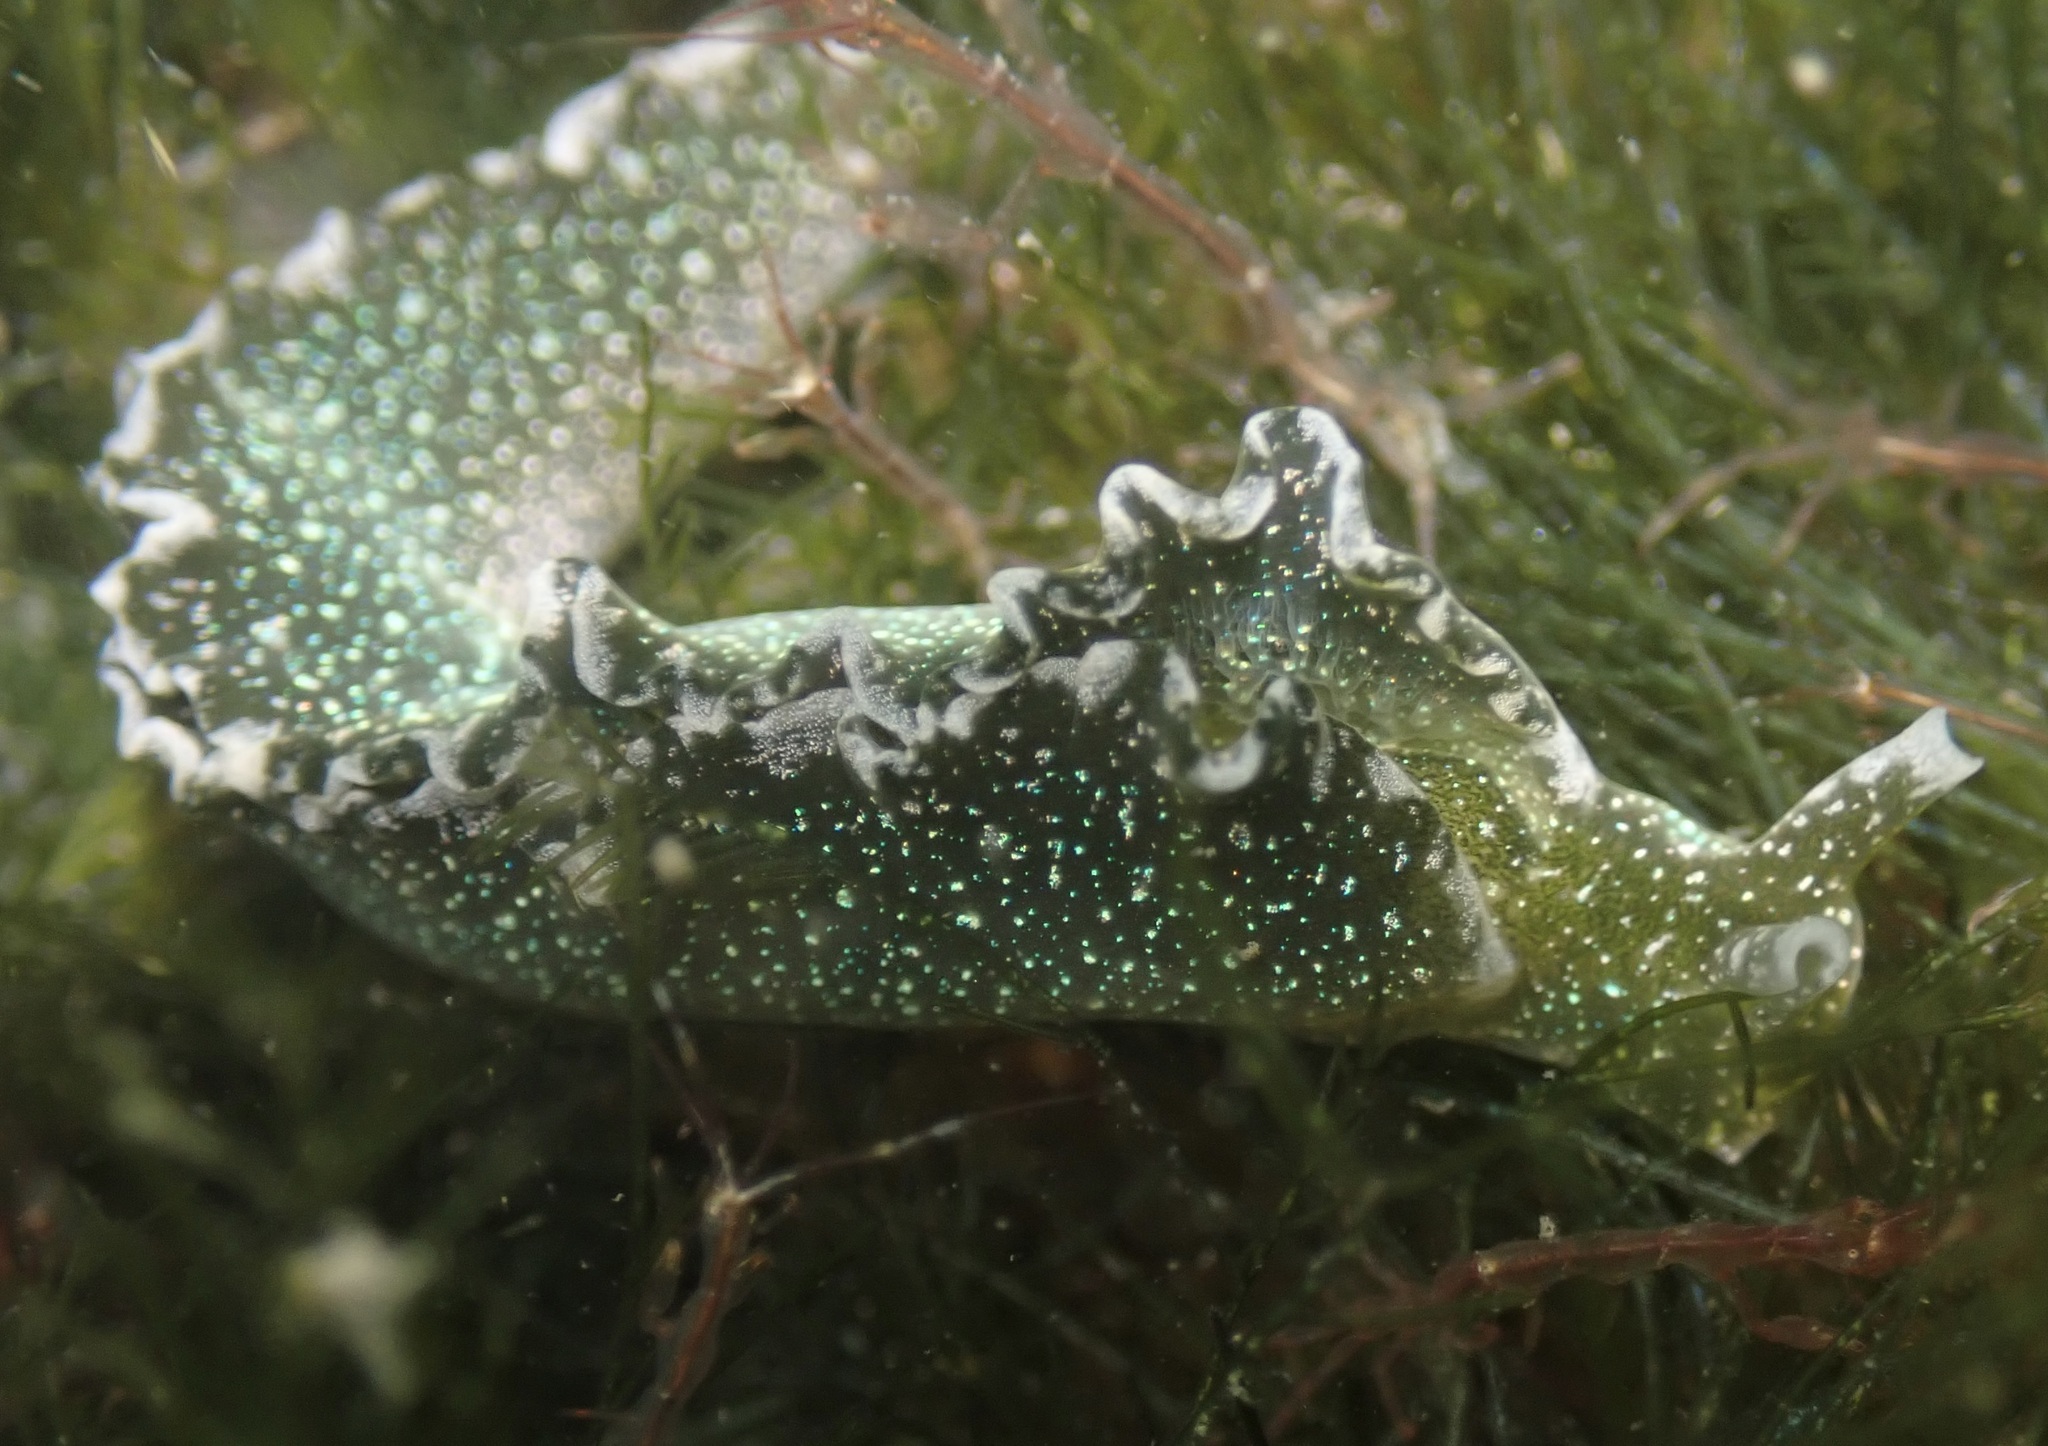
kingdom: Animalia
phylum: Mollusca
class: Gastropoda
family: Plakobranchidae
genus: Elysia
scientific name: Elysia hedgpethi
